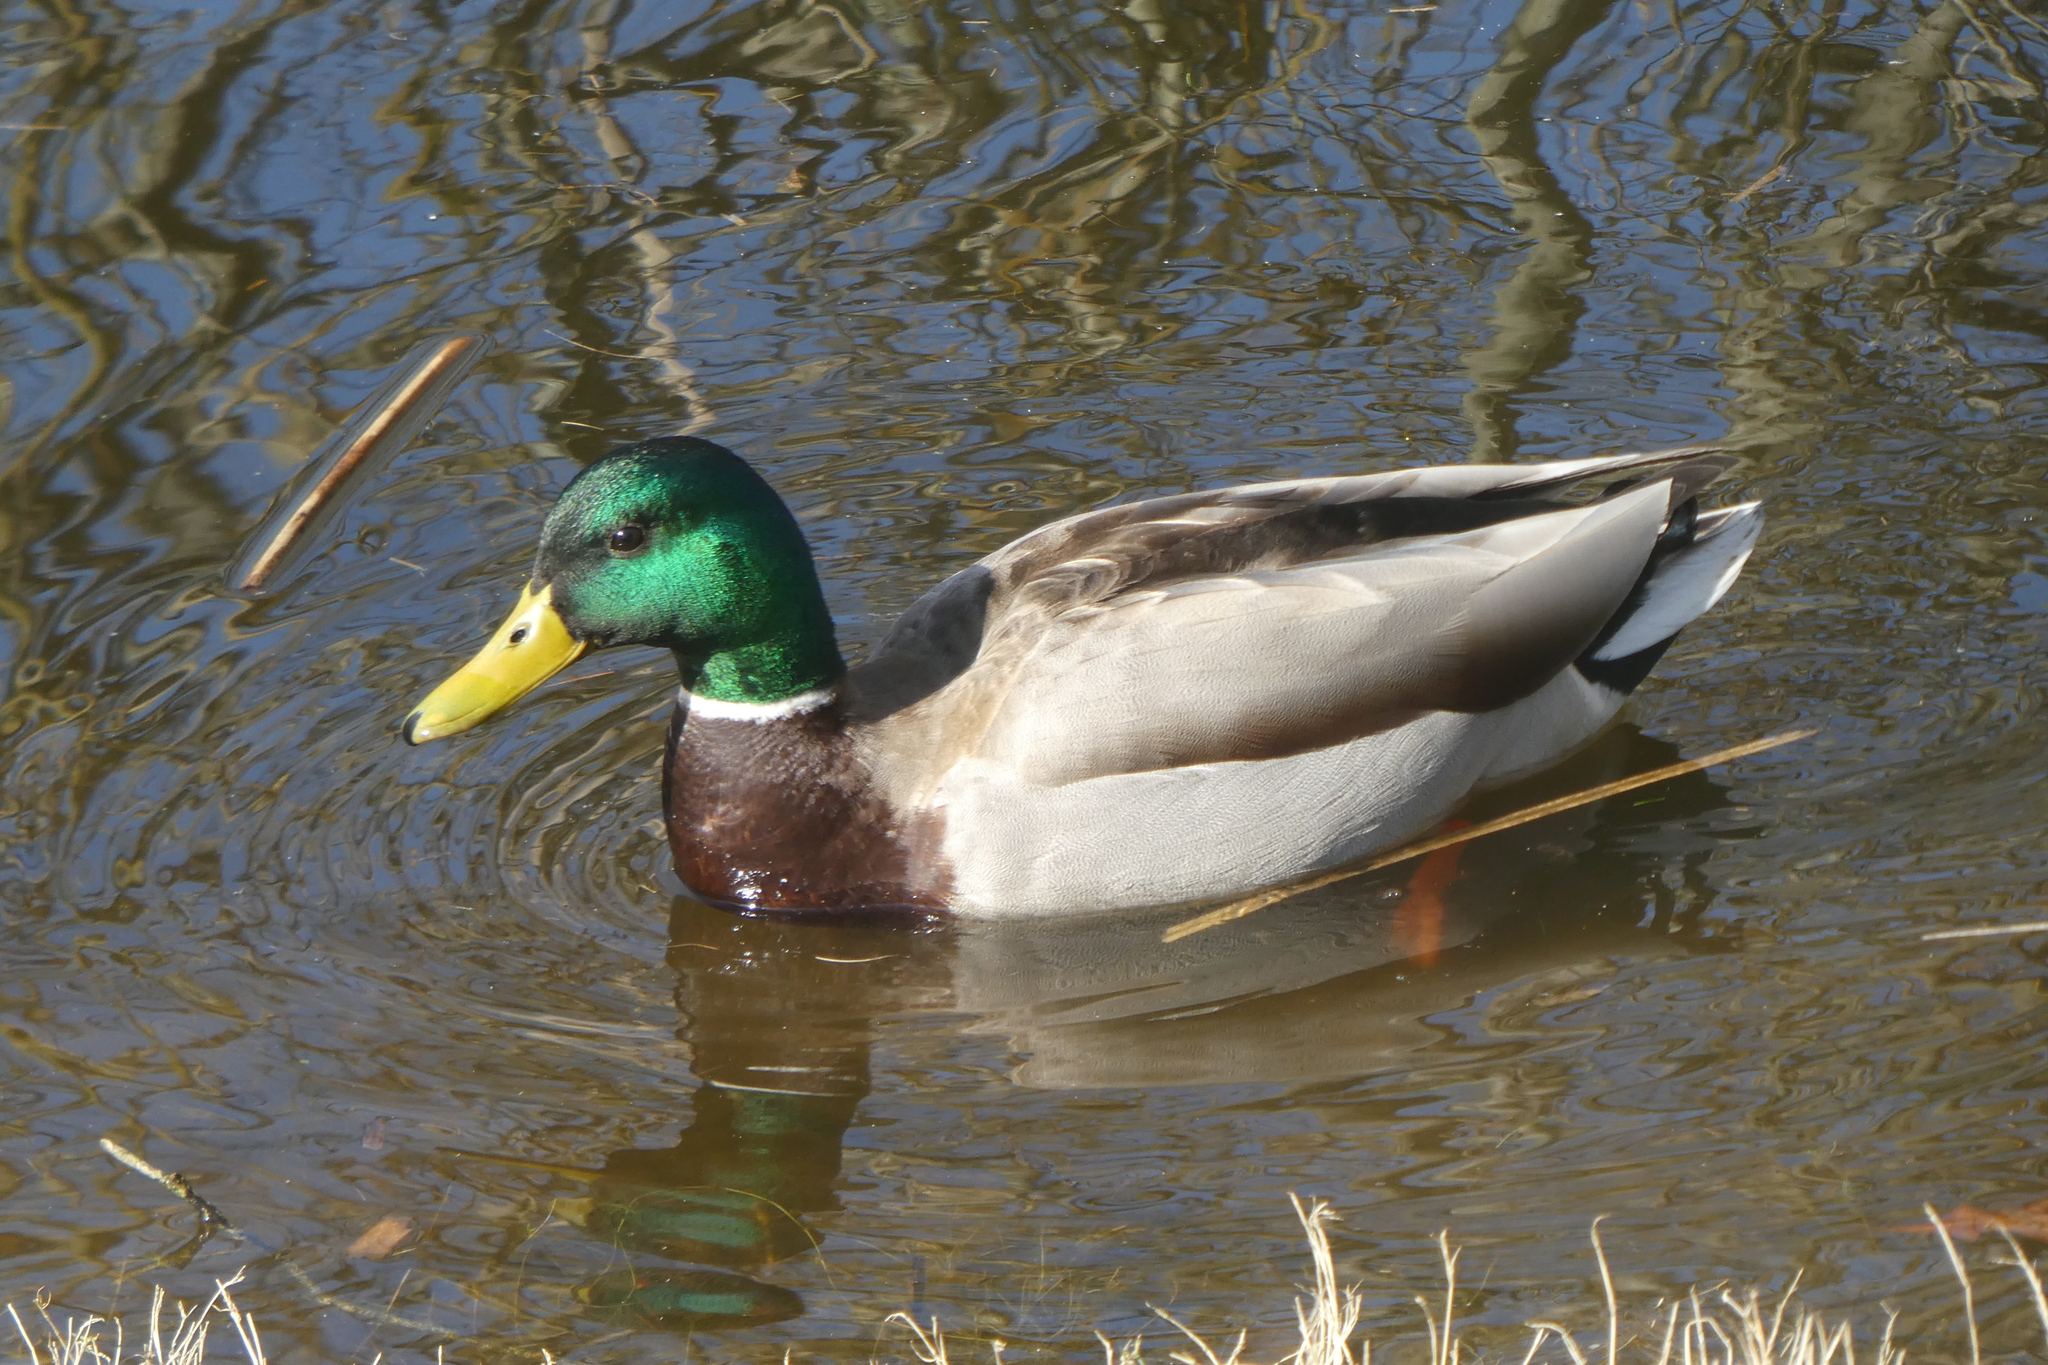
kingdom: Animalia
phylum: Chordata
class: Aves
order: Anseriformes
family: Anatidae
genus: Anas
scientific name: Anas platyrhynchos
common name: Mallard
